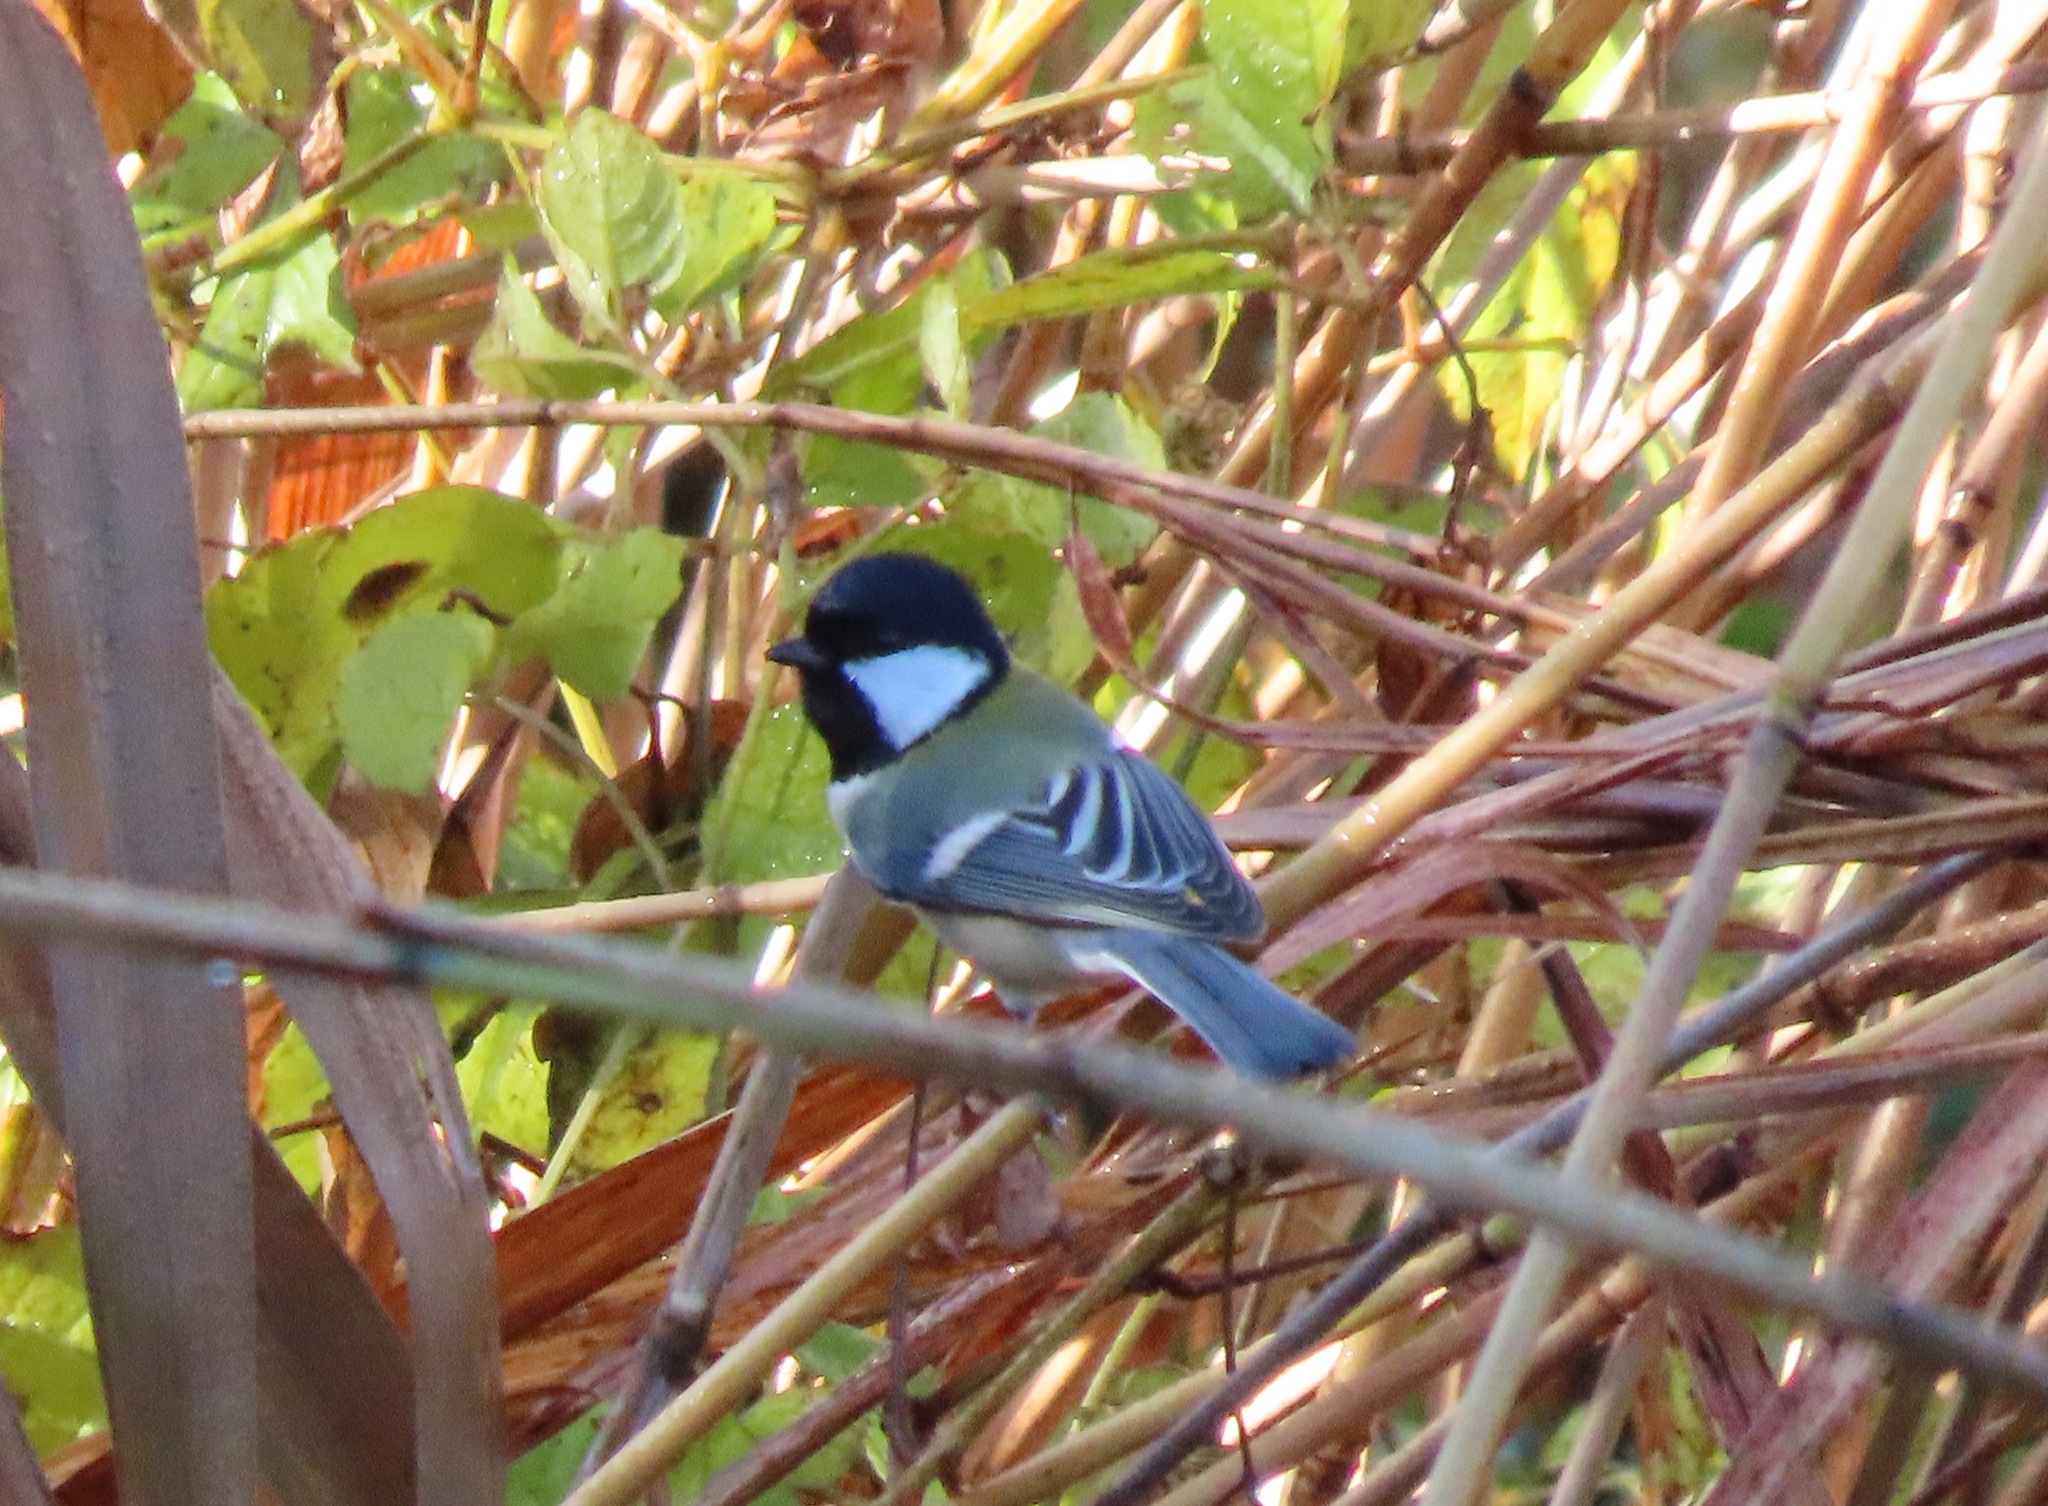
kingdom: Animalia
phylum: Chordata
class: Aves
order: Passeriformes
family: Paridae
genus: Parus
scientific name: Parus minor
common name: Japanese tit
